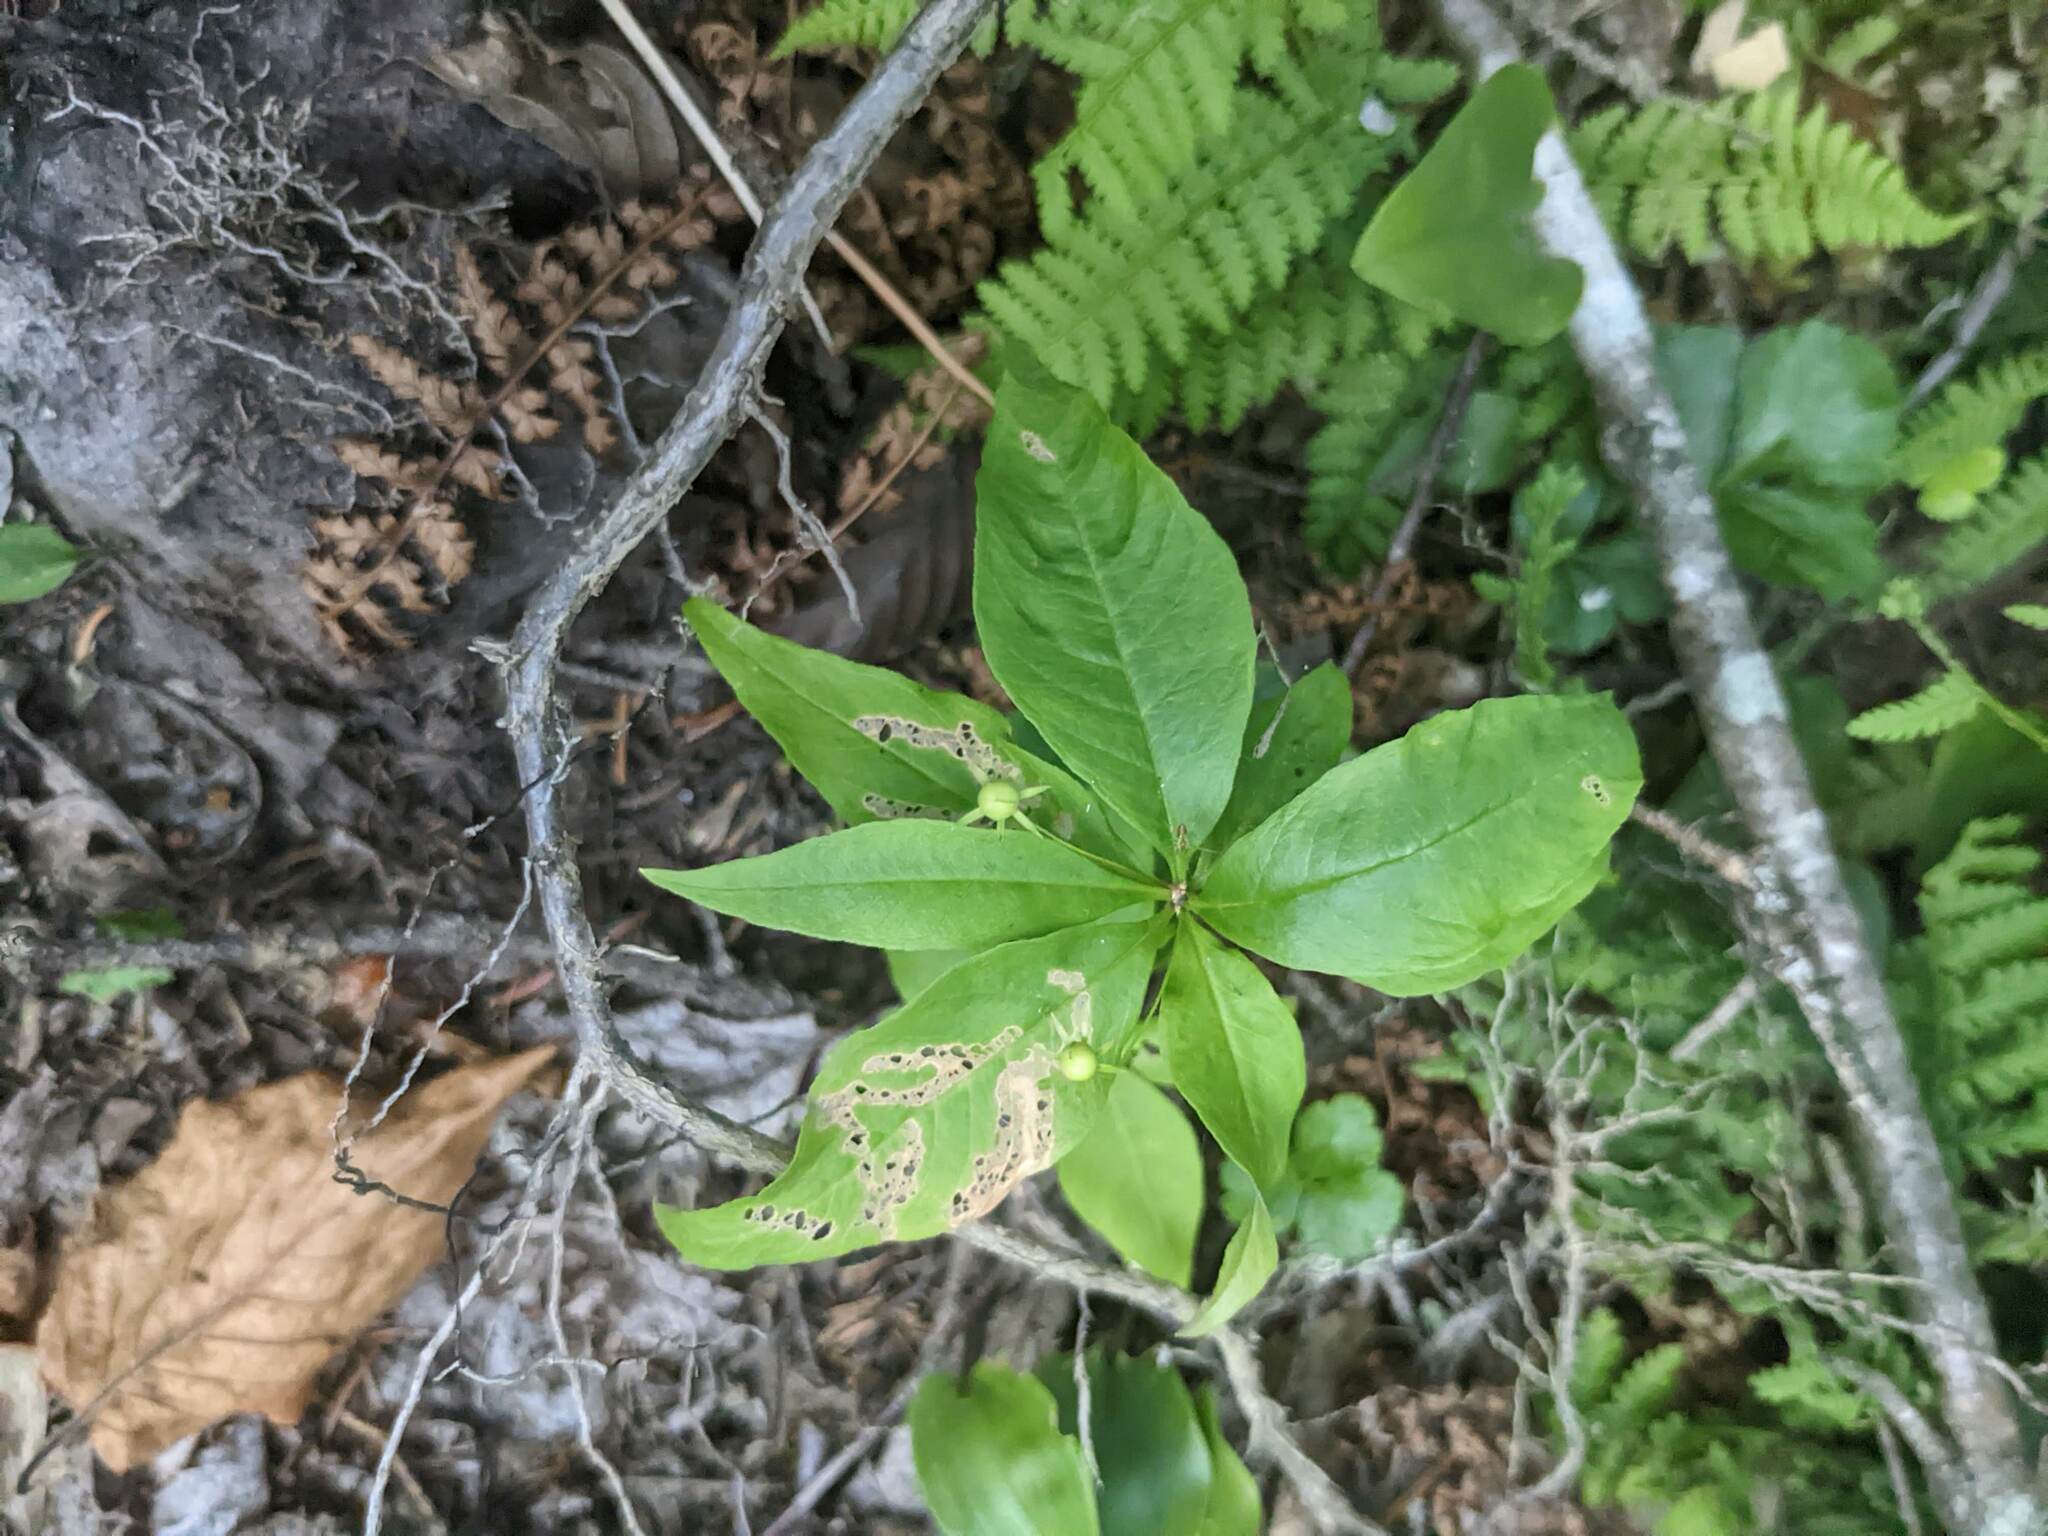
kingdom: Plantae
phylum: Tracheophyta
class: Magnoliopsida
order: Ericales
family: Primulaceae
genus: Lysimachia
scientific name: Lysimachia borealis
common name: American starflower
